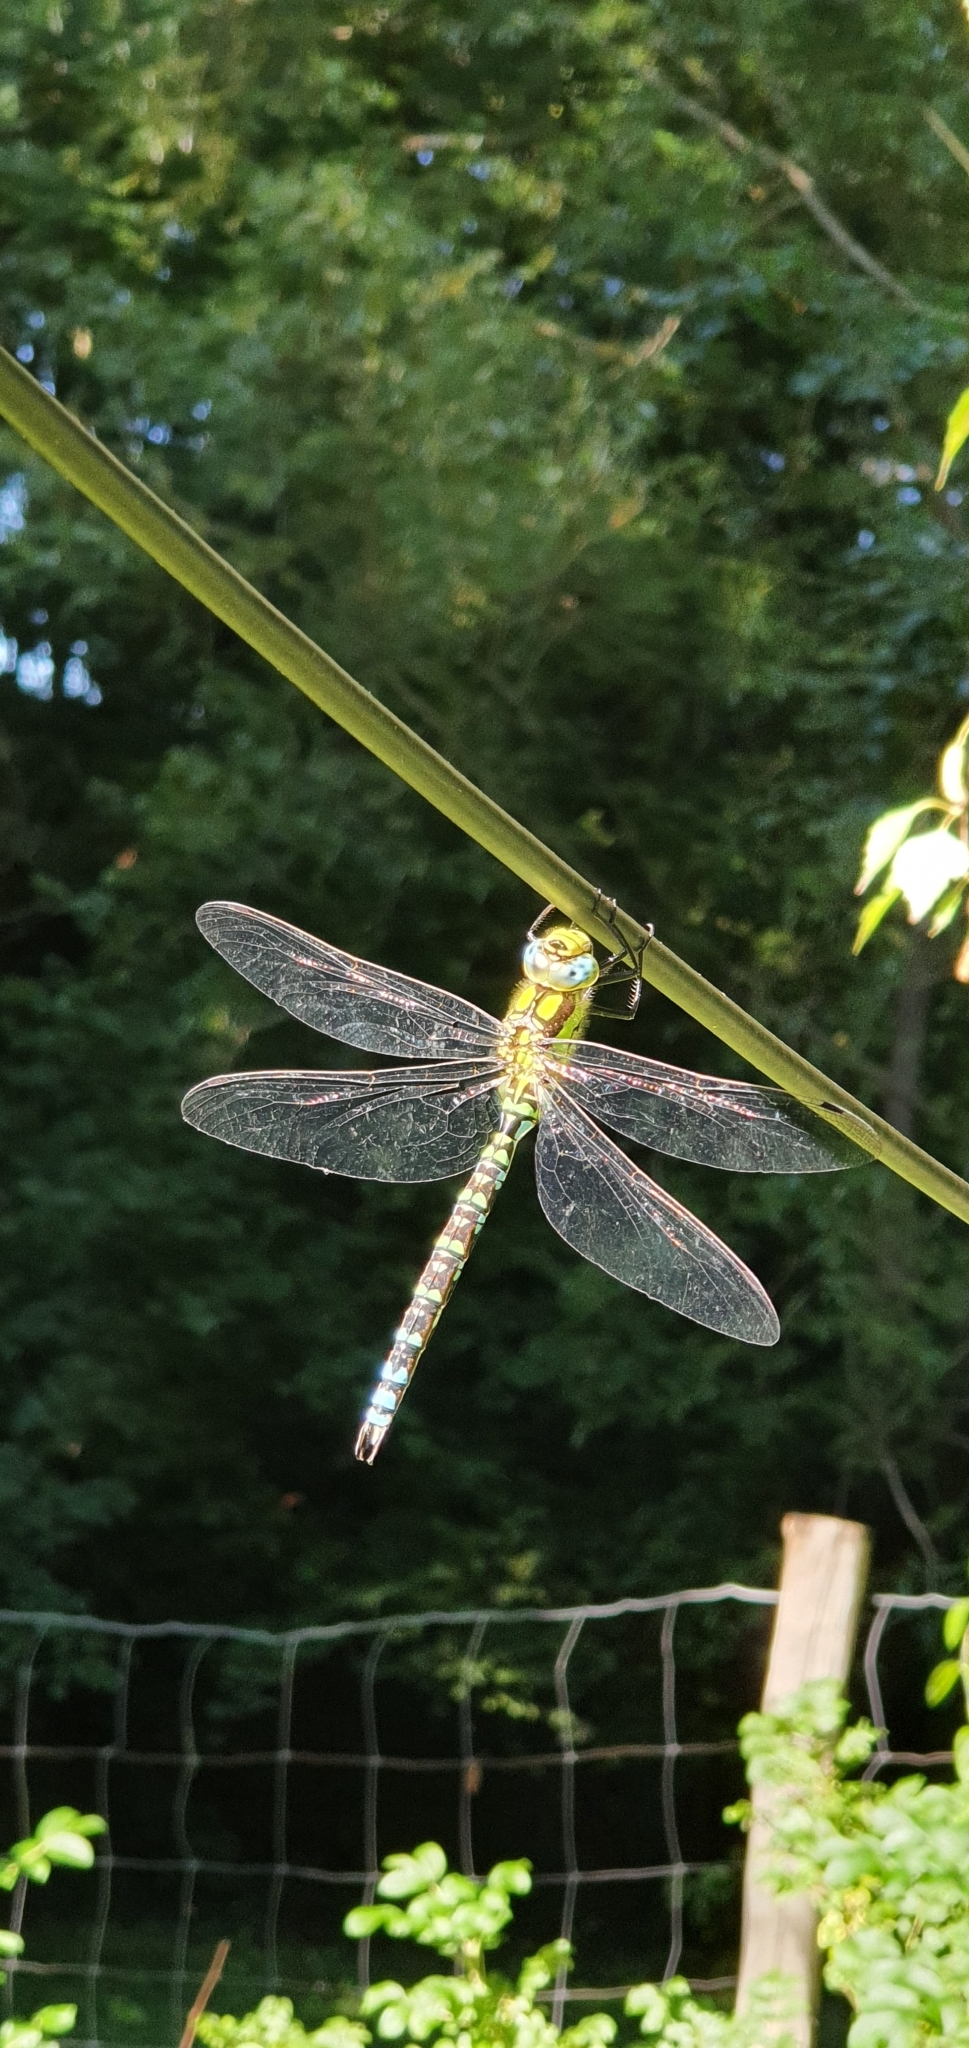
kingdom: Animalia
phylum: Arthropoda
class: Insecta
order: Odonata
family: Aeshnidae
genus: Aeshna
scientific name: Aeshna cyanea
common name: Southern hawker
